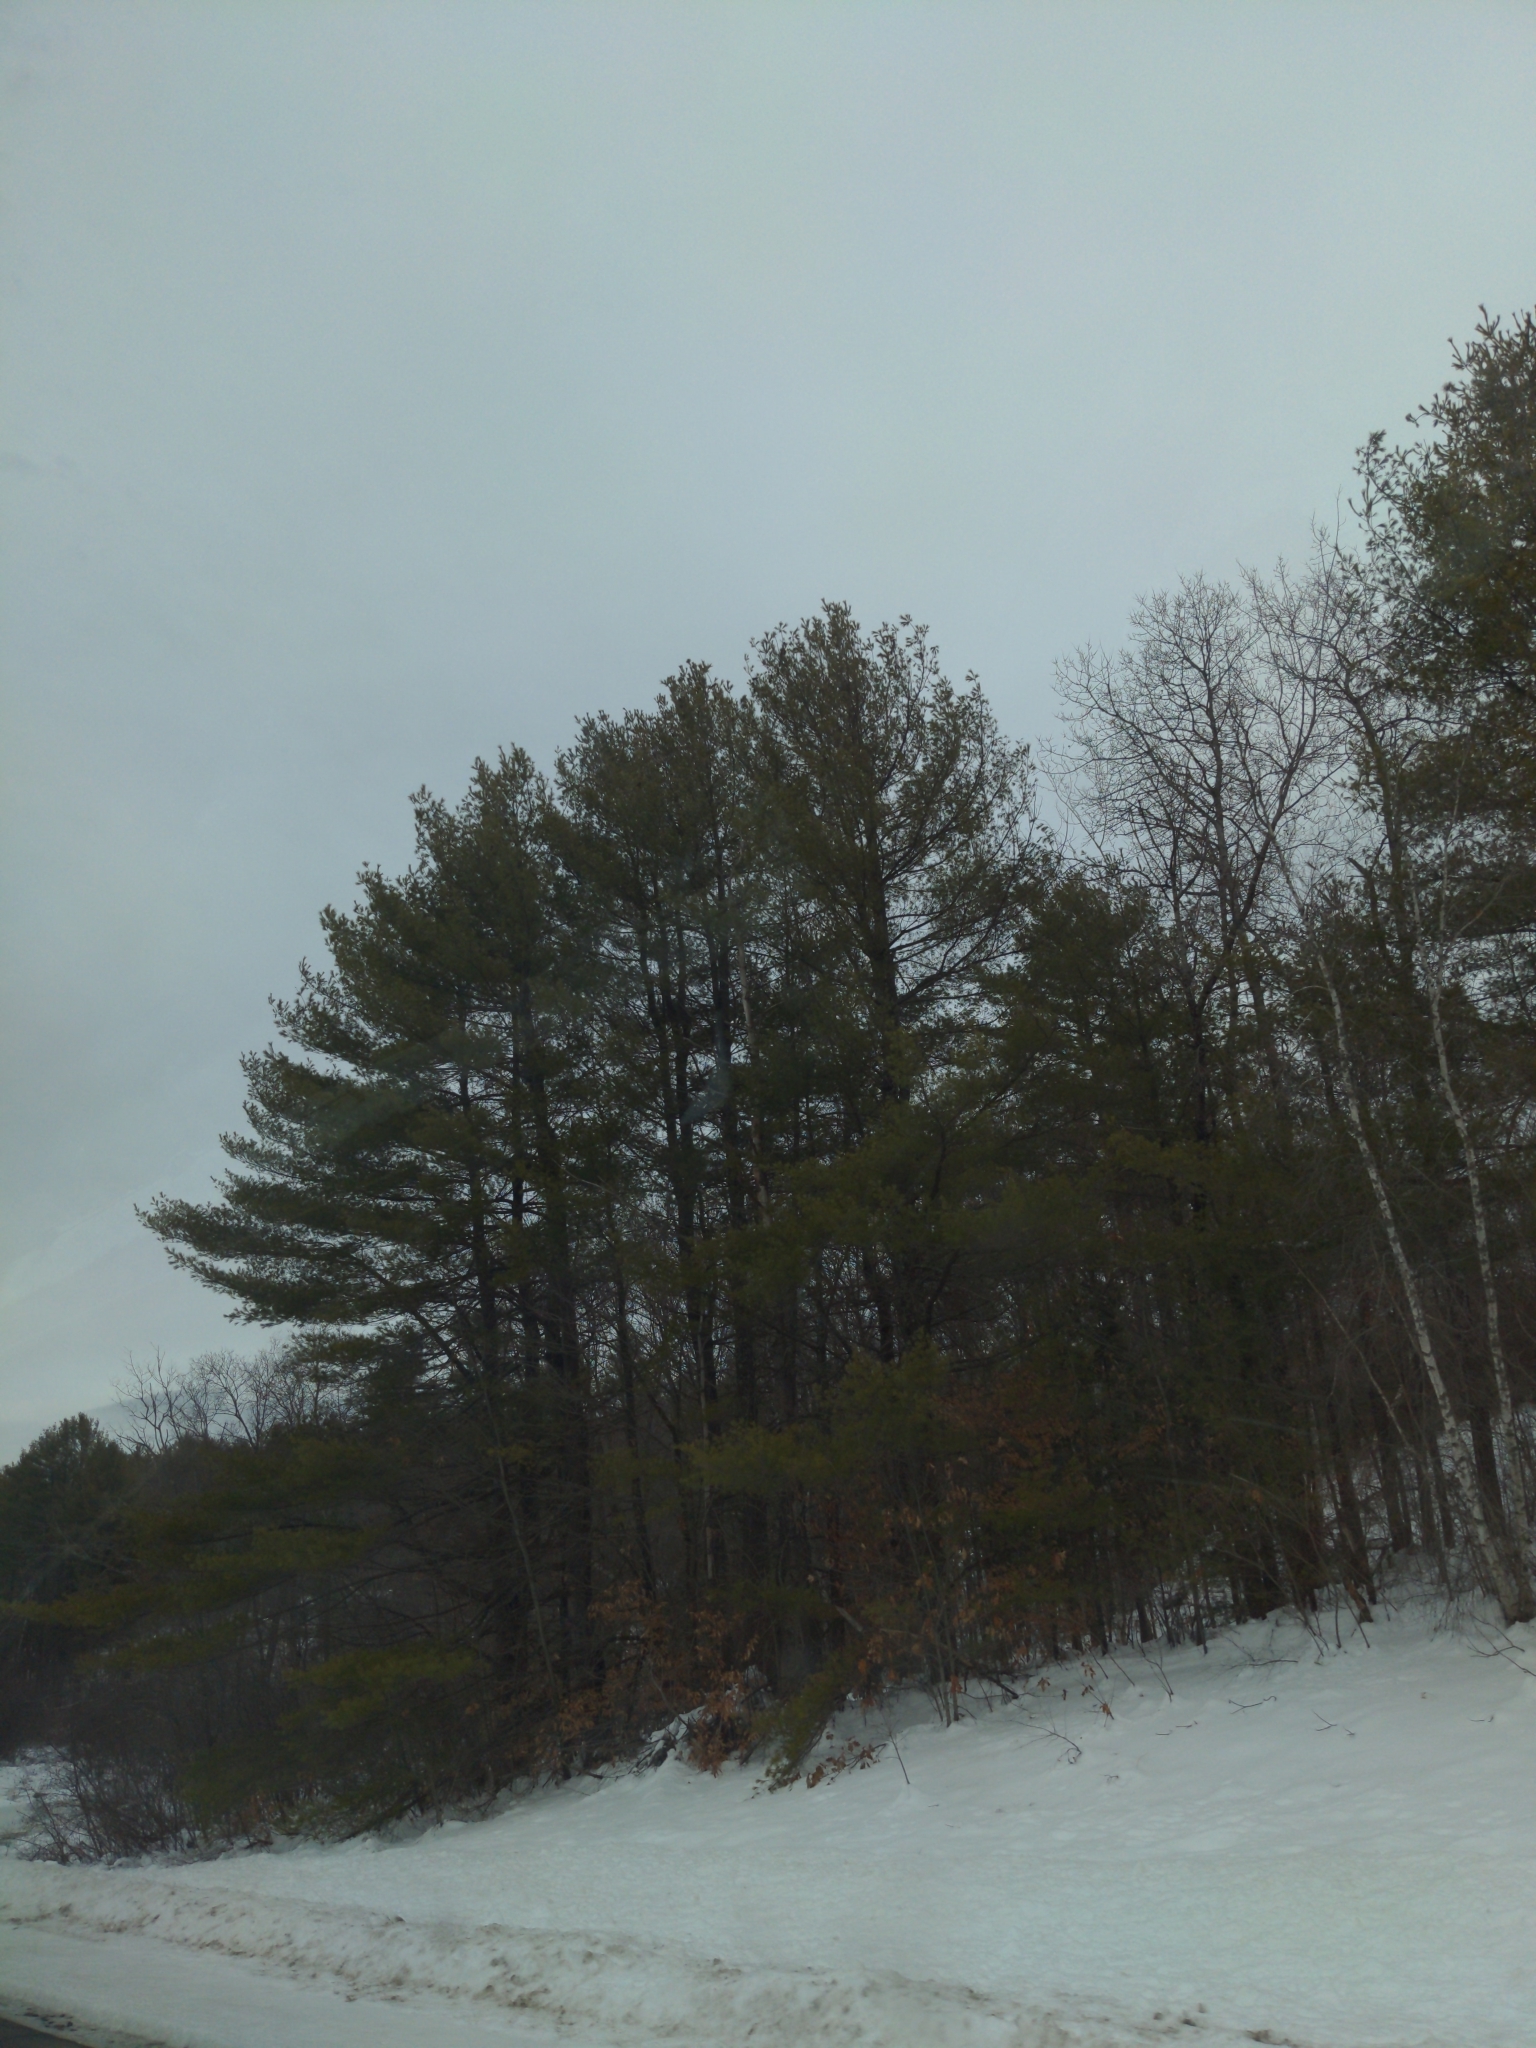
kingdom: Plantae
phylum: Tracheophyta
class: Pinopsida
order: Pinales
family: Pinaceae
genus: Pinus
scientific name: Pinus strobus
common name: Weymouth pine
